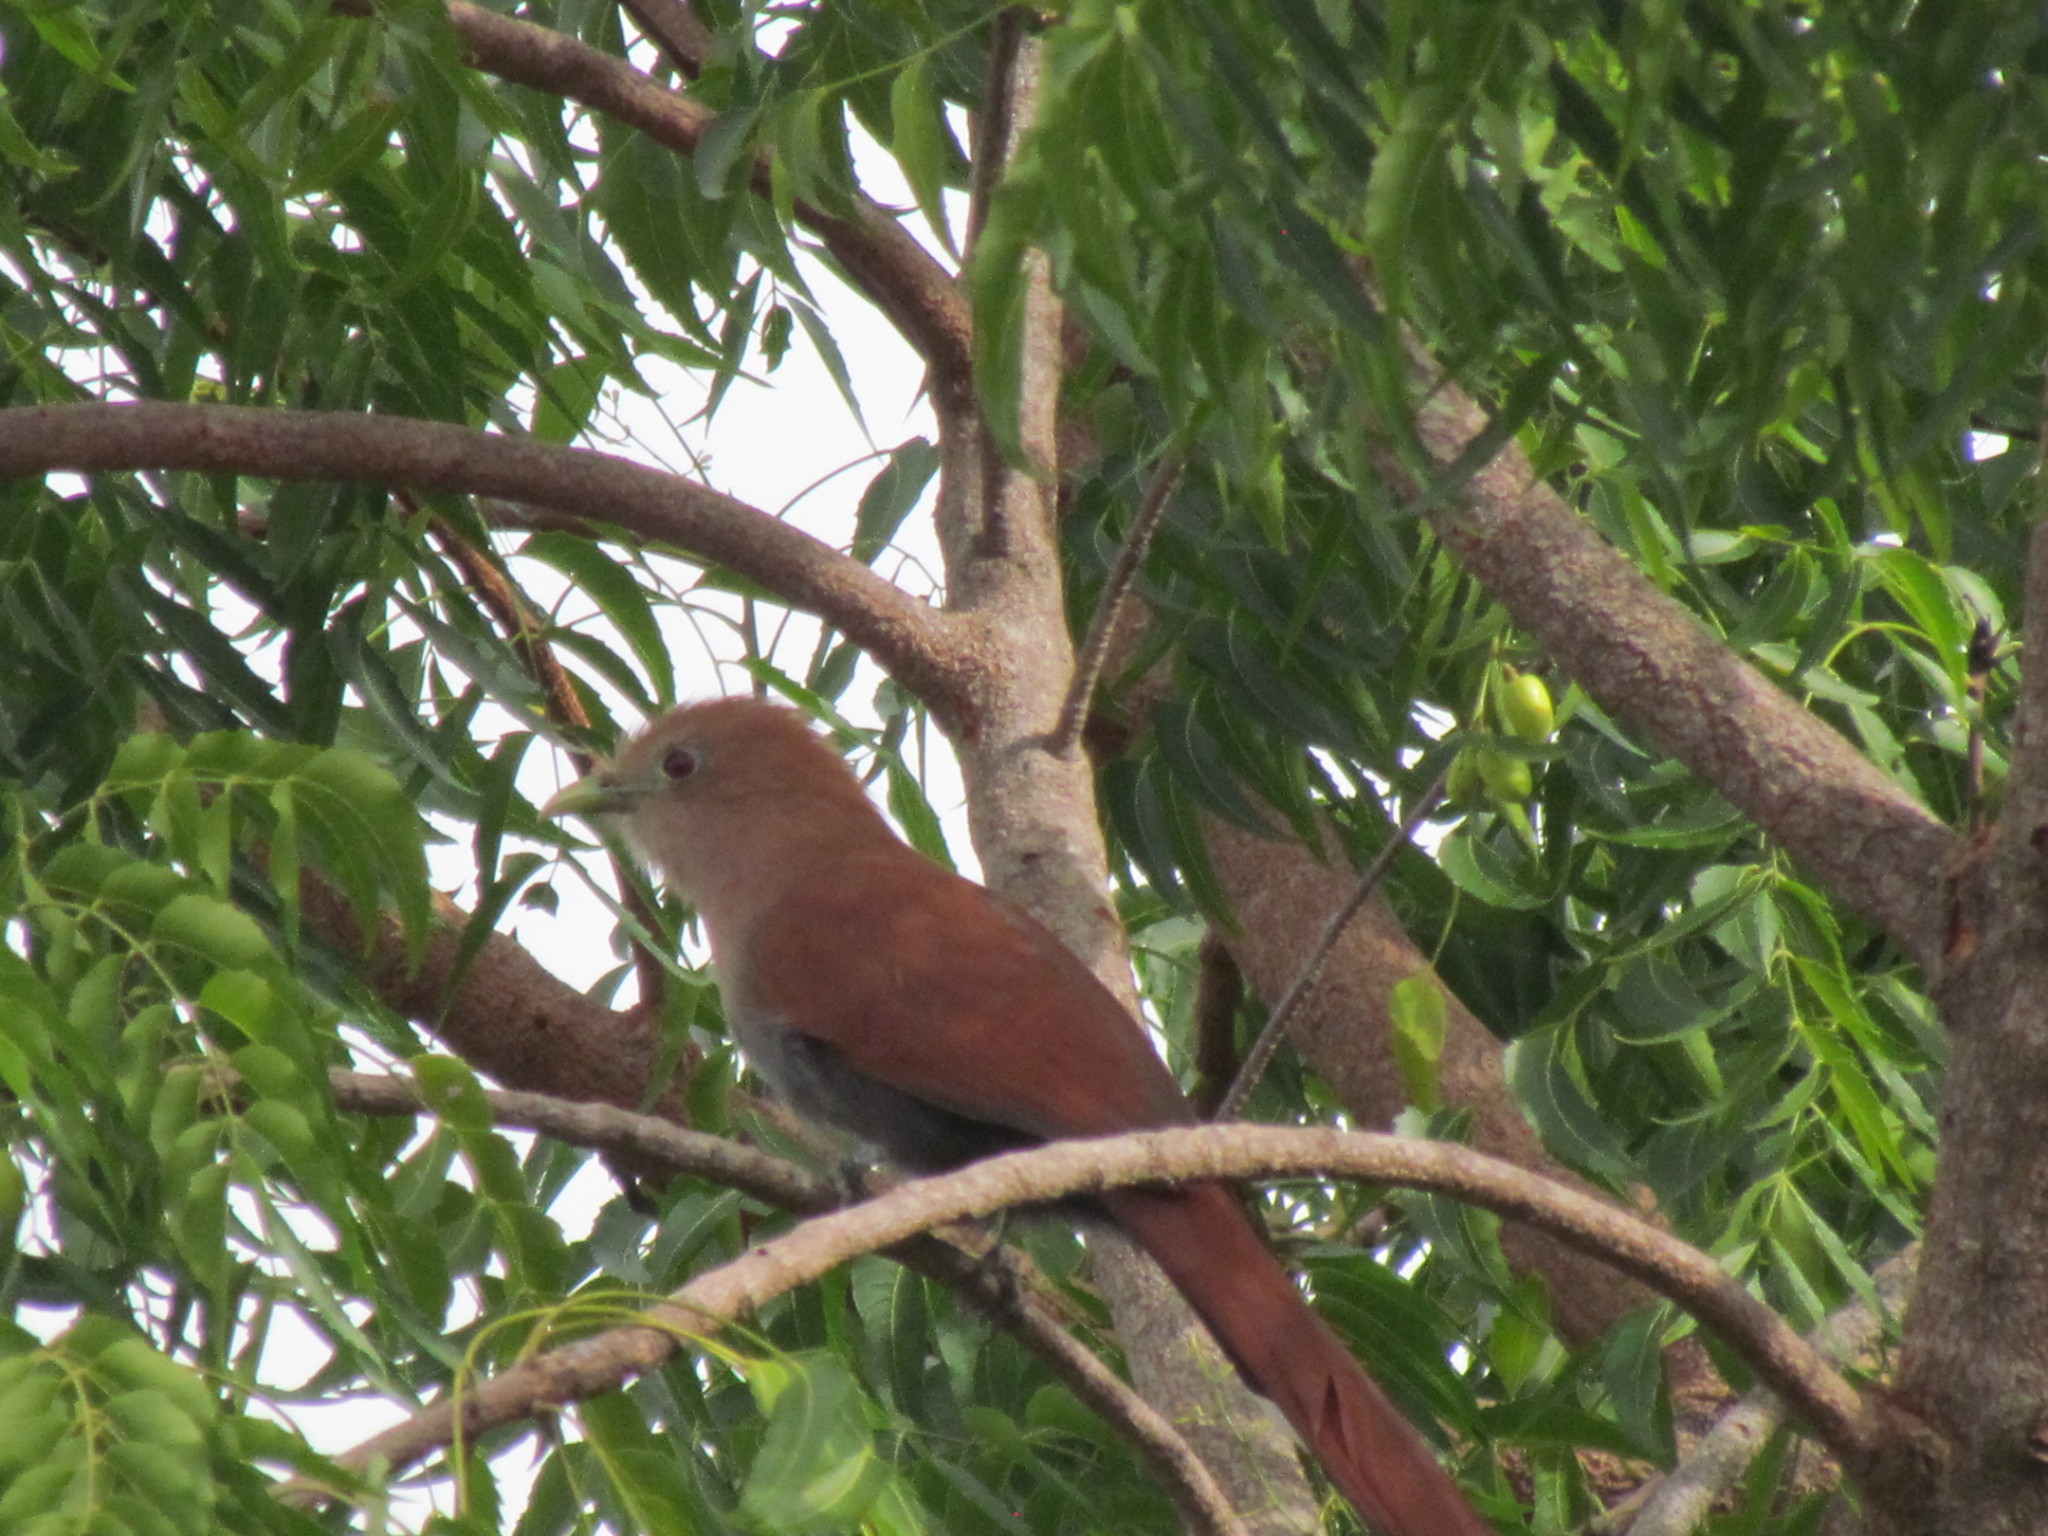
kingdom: Animalia
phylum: Chordata
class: Aves
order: Cuculiformes
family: Cuculidae
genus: Piaya
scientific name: Piaya cayana
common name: Squirrel cuckoo
